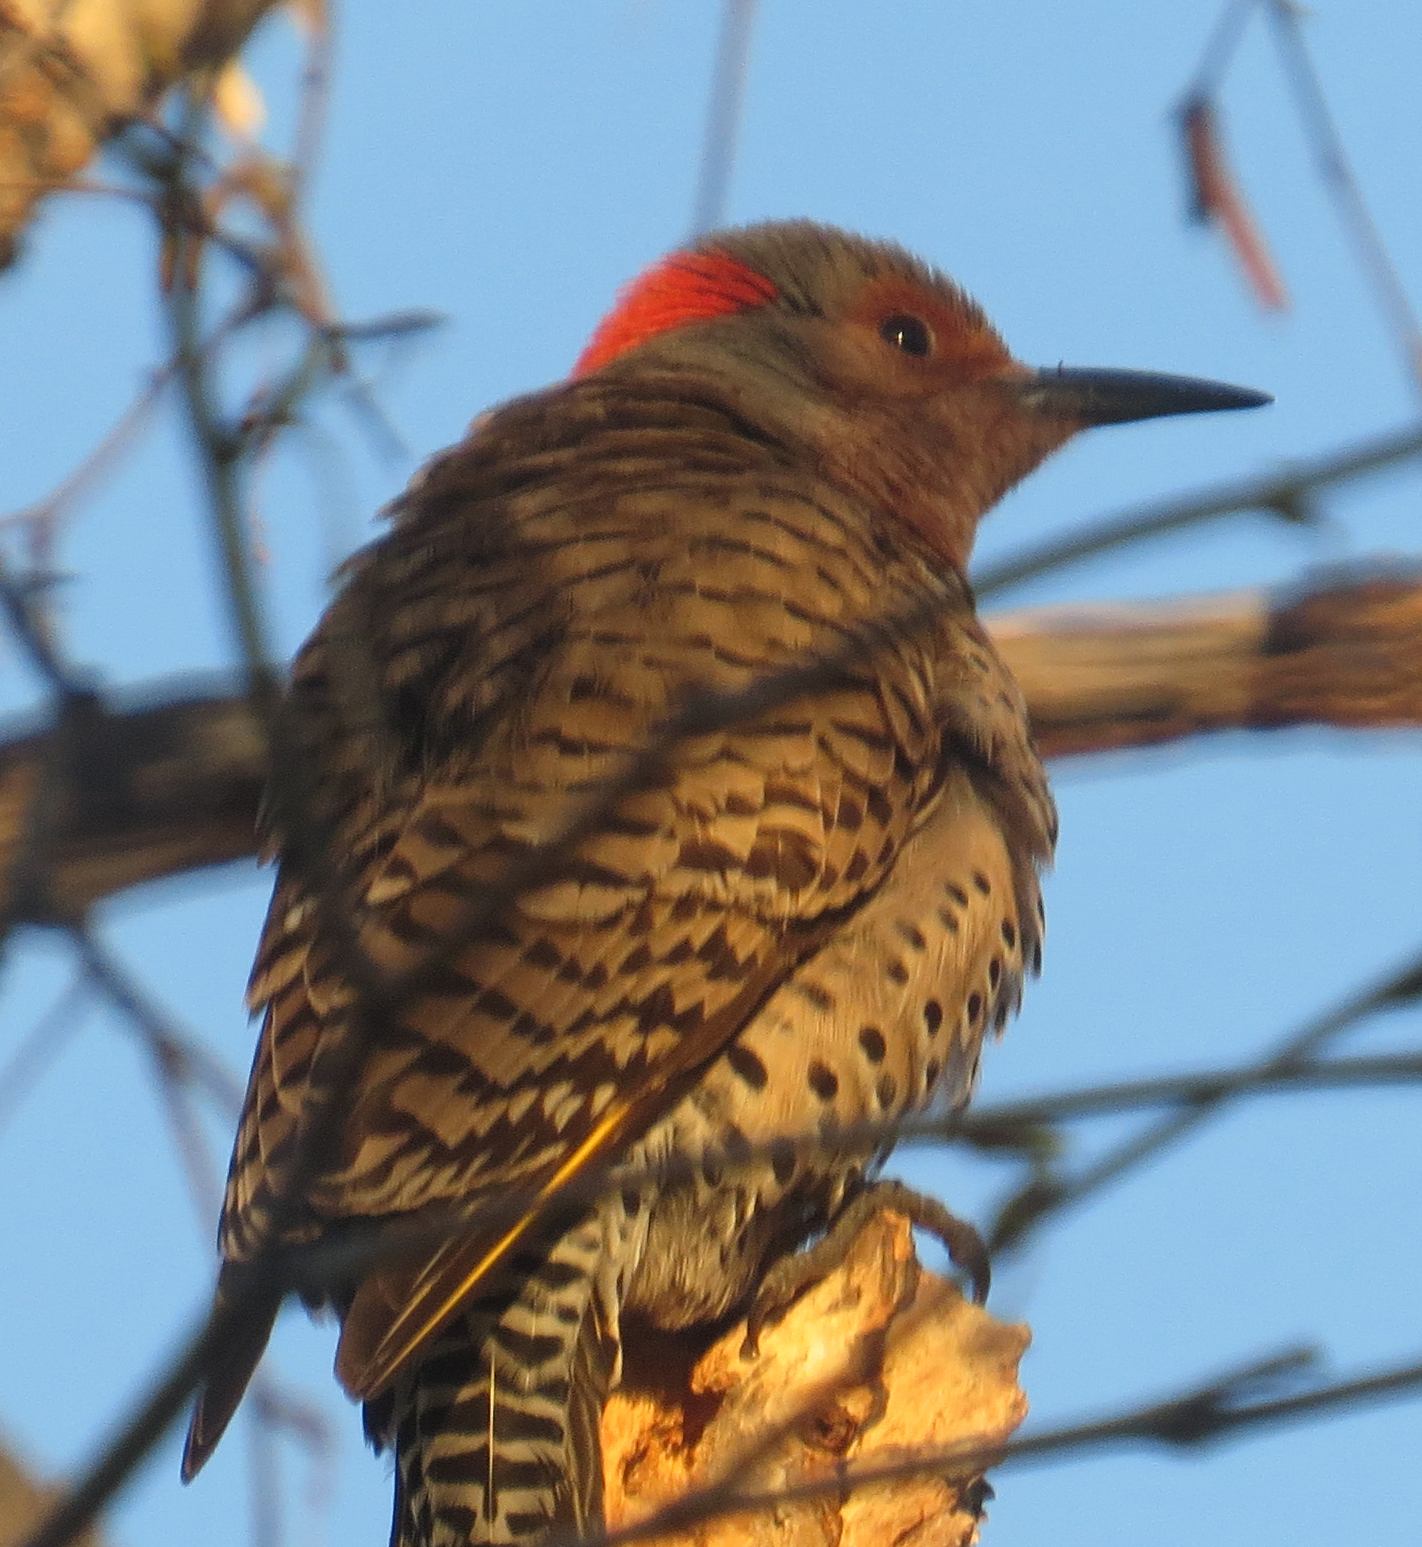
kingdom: Animalia
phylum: Chordata
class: Aves
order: Piciformes
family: Picidae
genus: Colaptes
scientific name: Colaptes auratus
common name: Northern flicker
